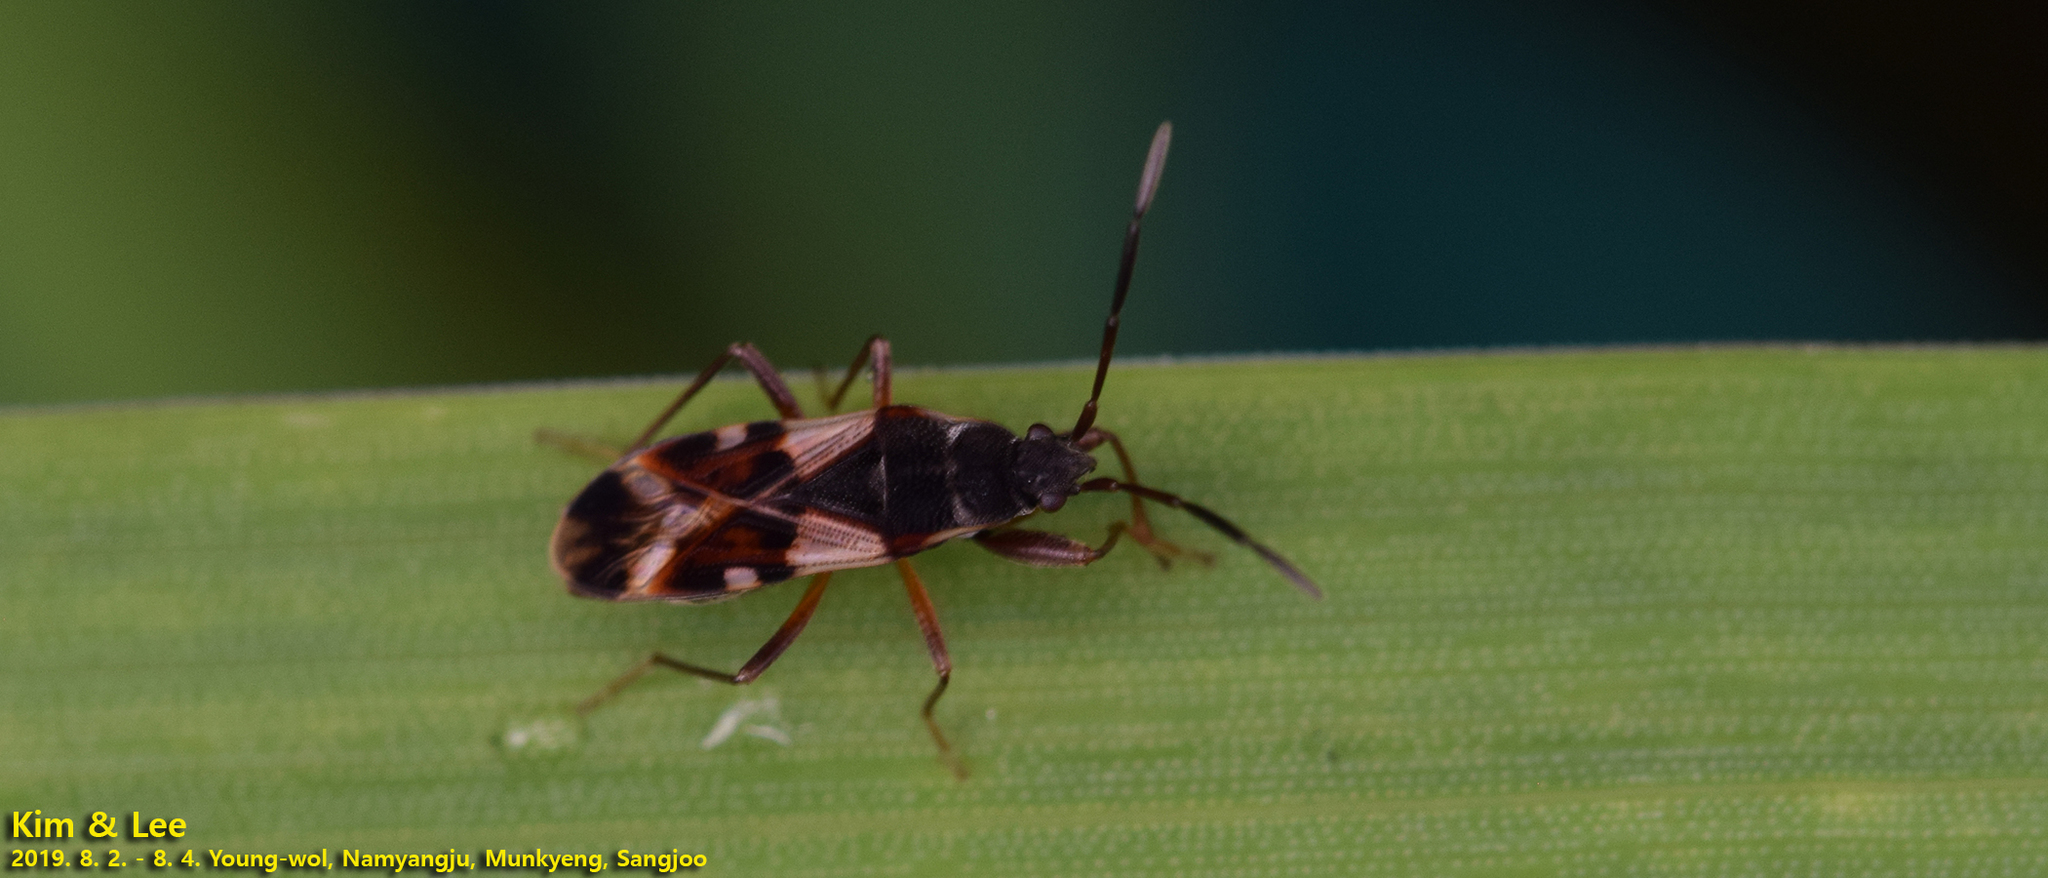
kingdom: Animalia
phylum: Arthropoda
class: Insecta
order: Hemiptera
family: Rhyparochromidae
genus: Paradieuches
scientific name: Paradieuches dissimilis
